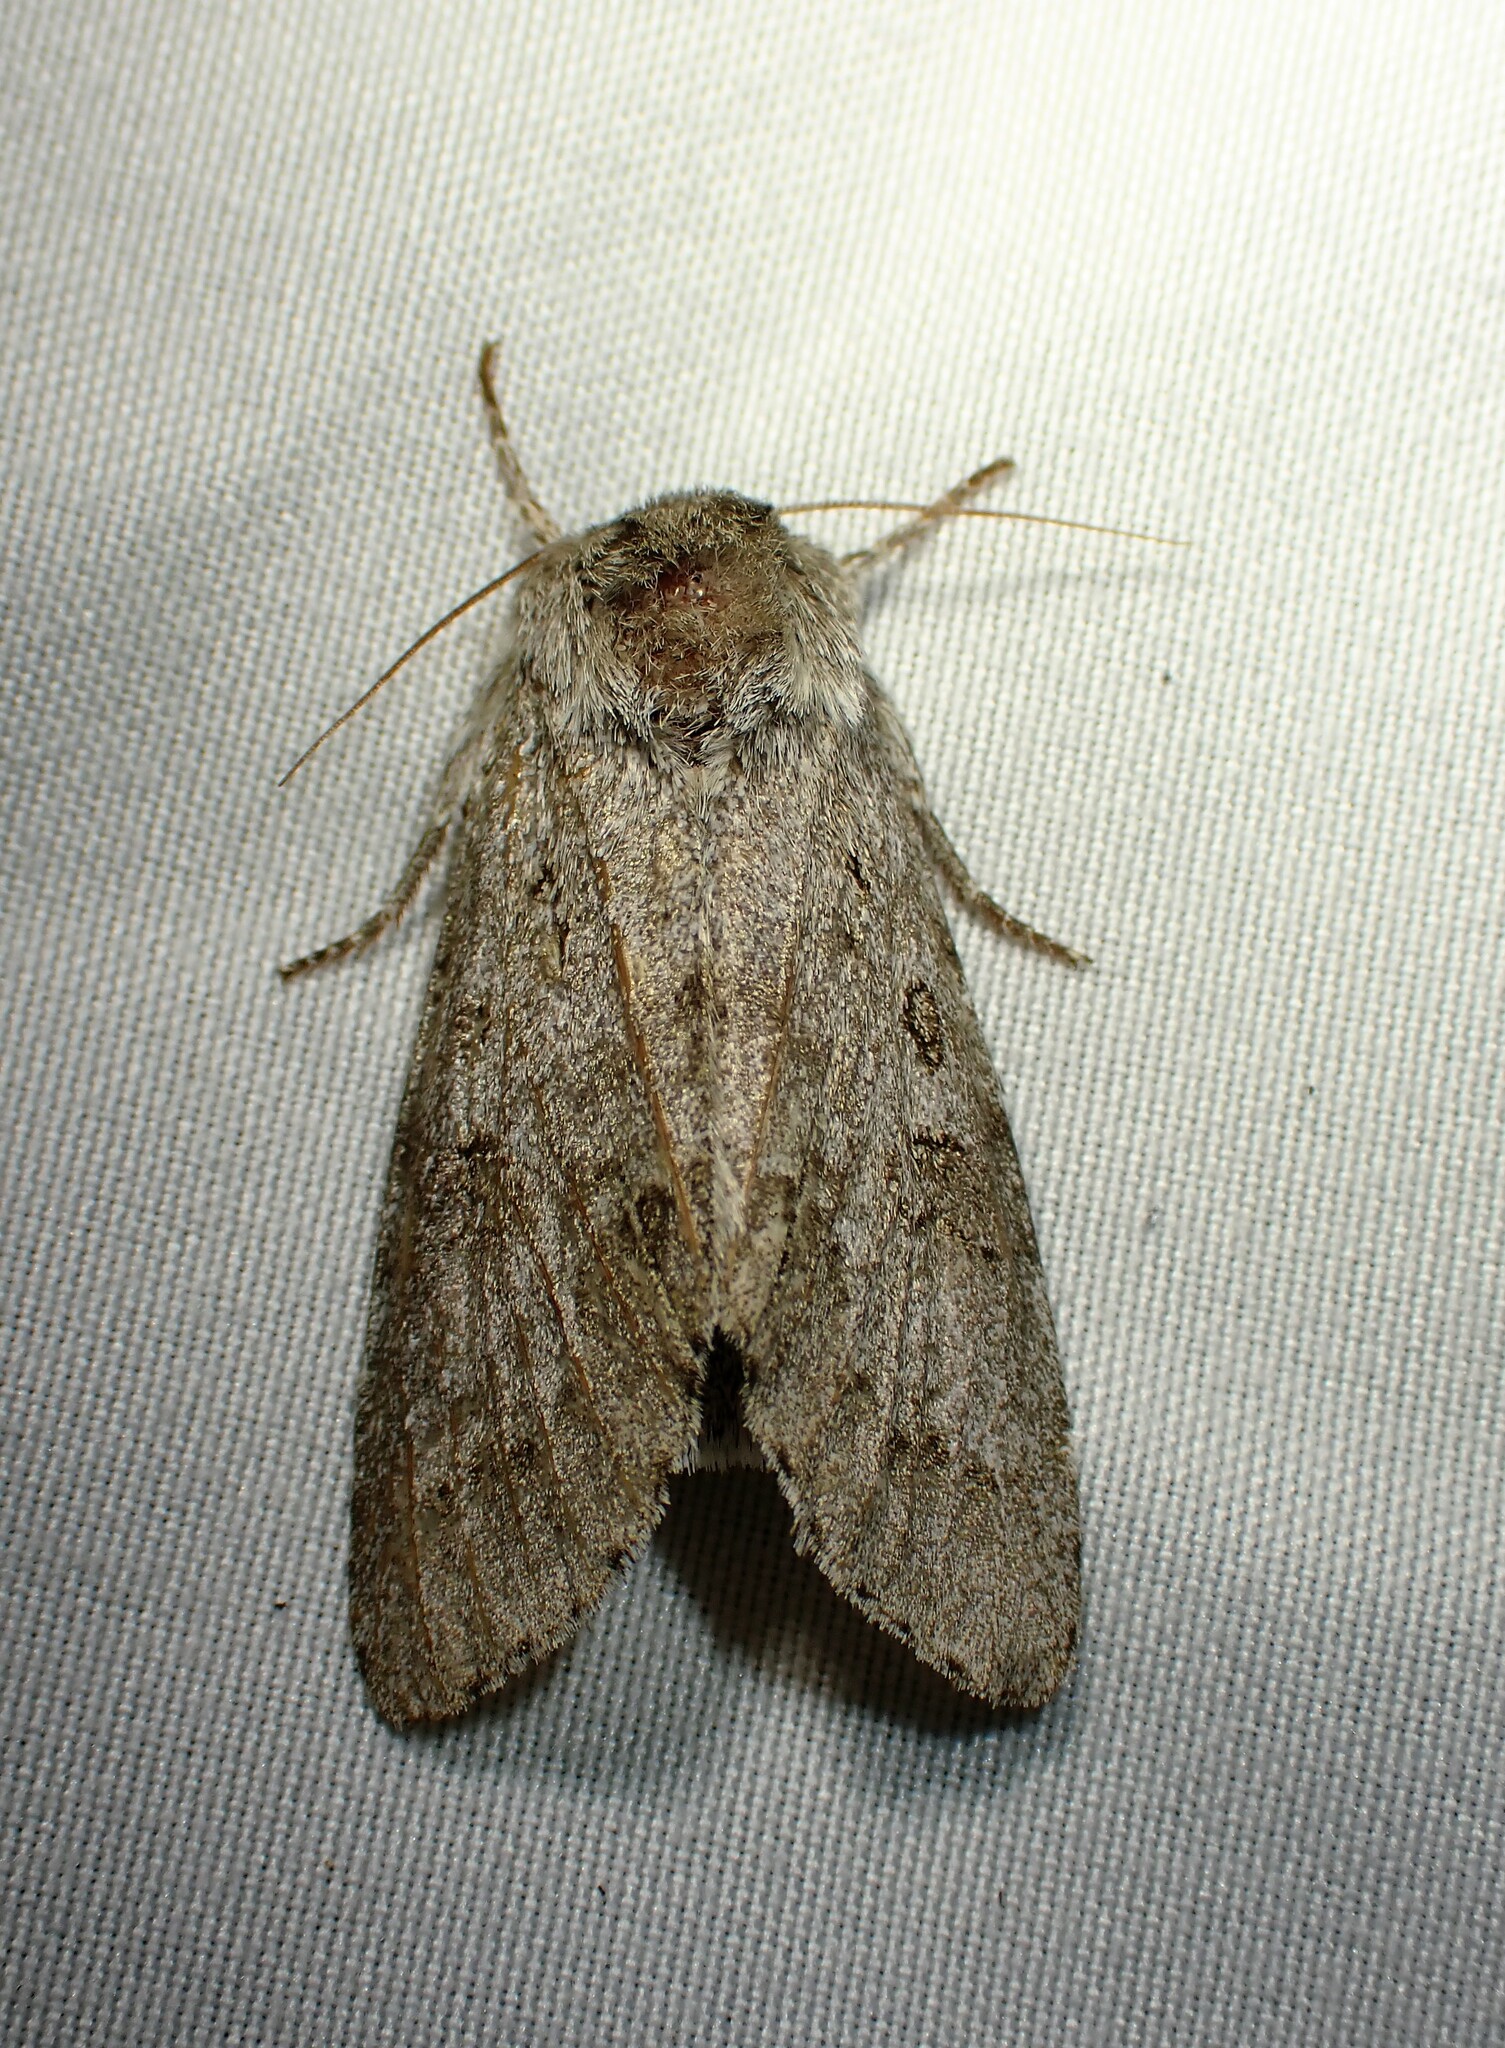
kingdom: Animalia
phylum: Arthropoda
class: Insecta
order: Lepidoptera
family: Noctuidae
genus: Acronicta
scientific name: Acronicta insita
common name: Large gray dagger
